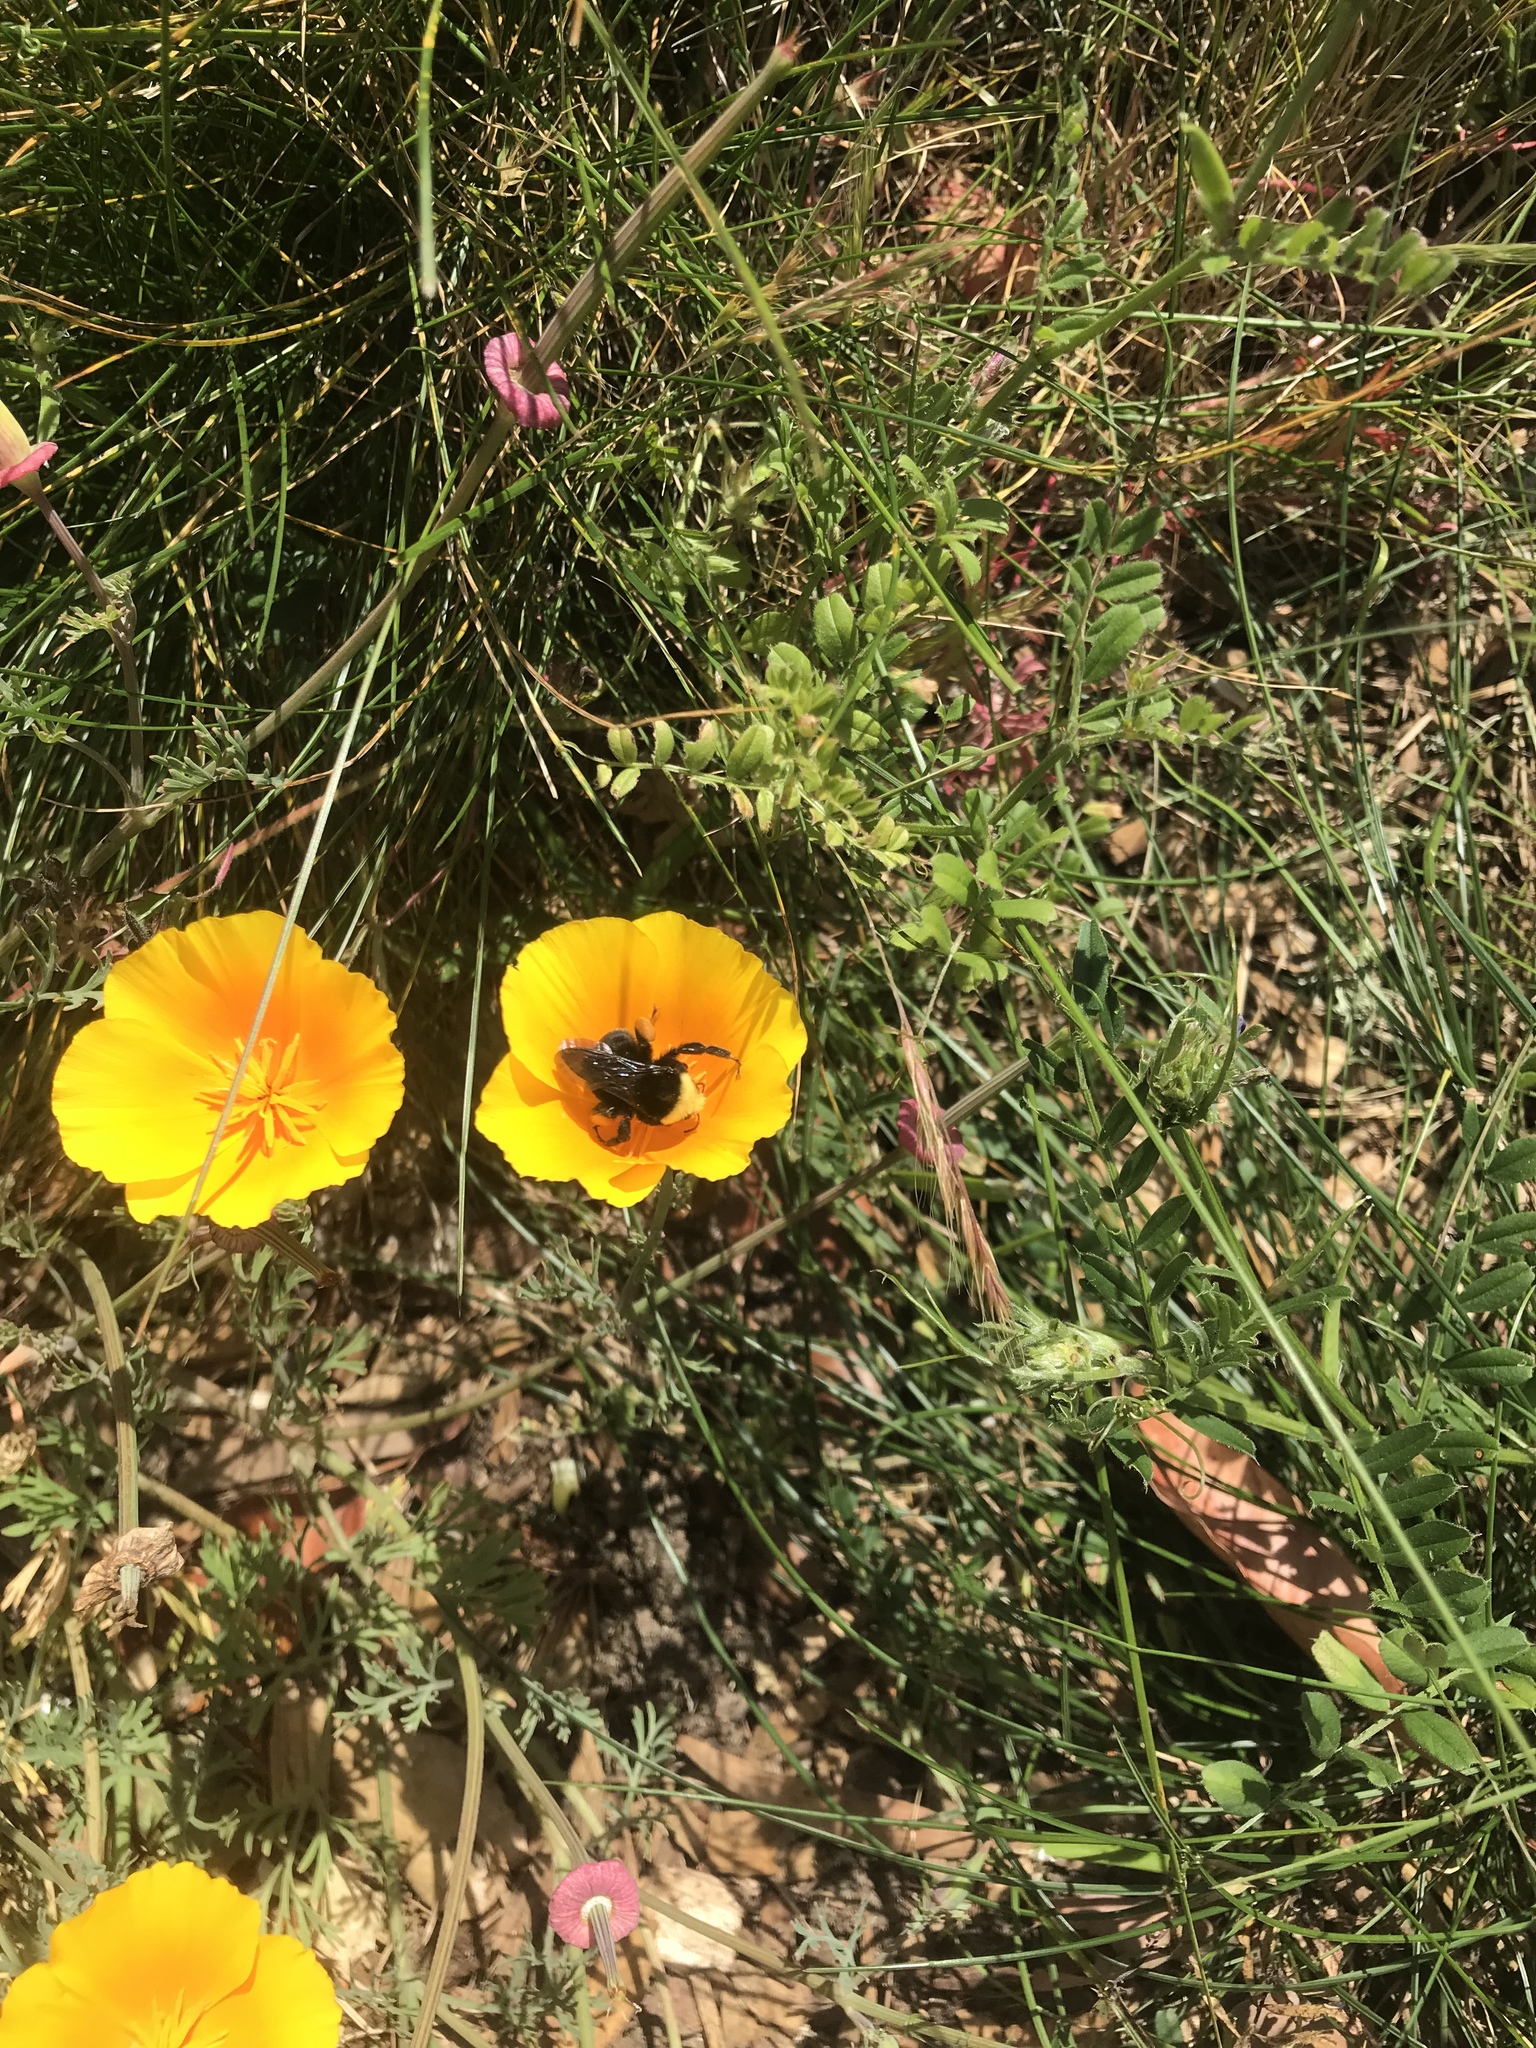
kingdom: Animalia
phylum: Arthropoda
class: Insecta
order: Hymenoptera
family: Apidae
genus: Bombus
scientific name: Bombus vosnesenskii
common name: Vosnesensky bumble bee
